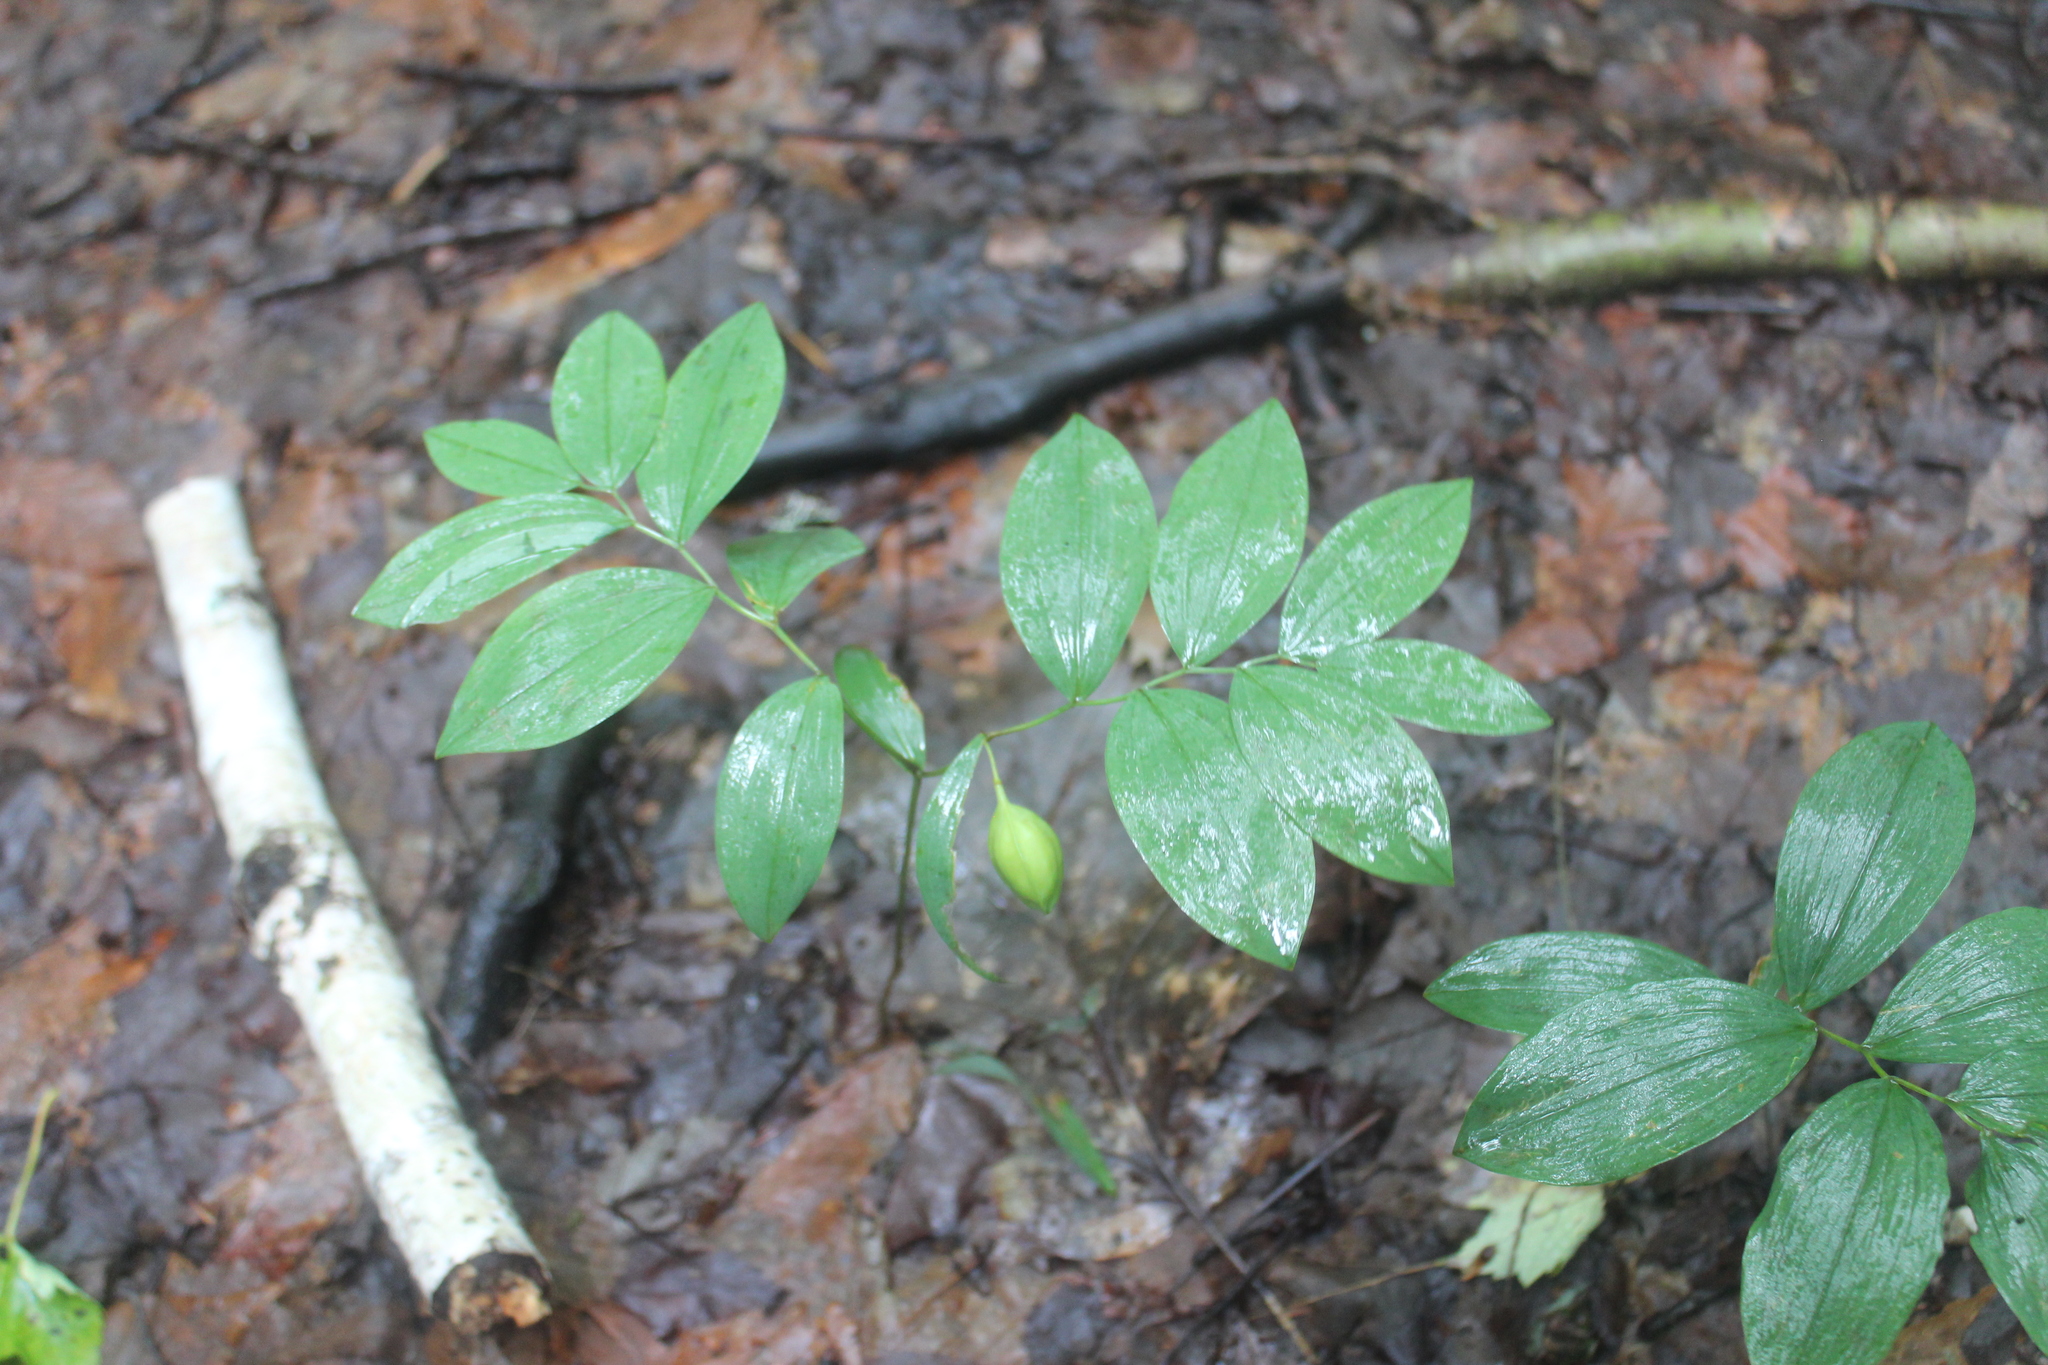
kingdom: Plantae
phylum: Tracheophyta
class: Liliopsida
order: Liliales
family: Colchicaceae
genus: Uvularia
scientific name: Uvularia sessilifolia
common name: Straw-lily
